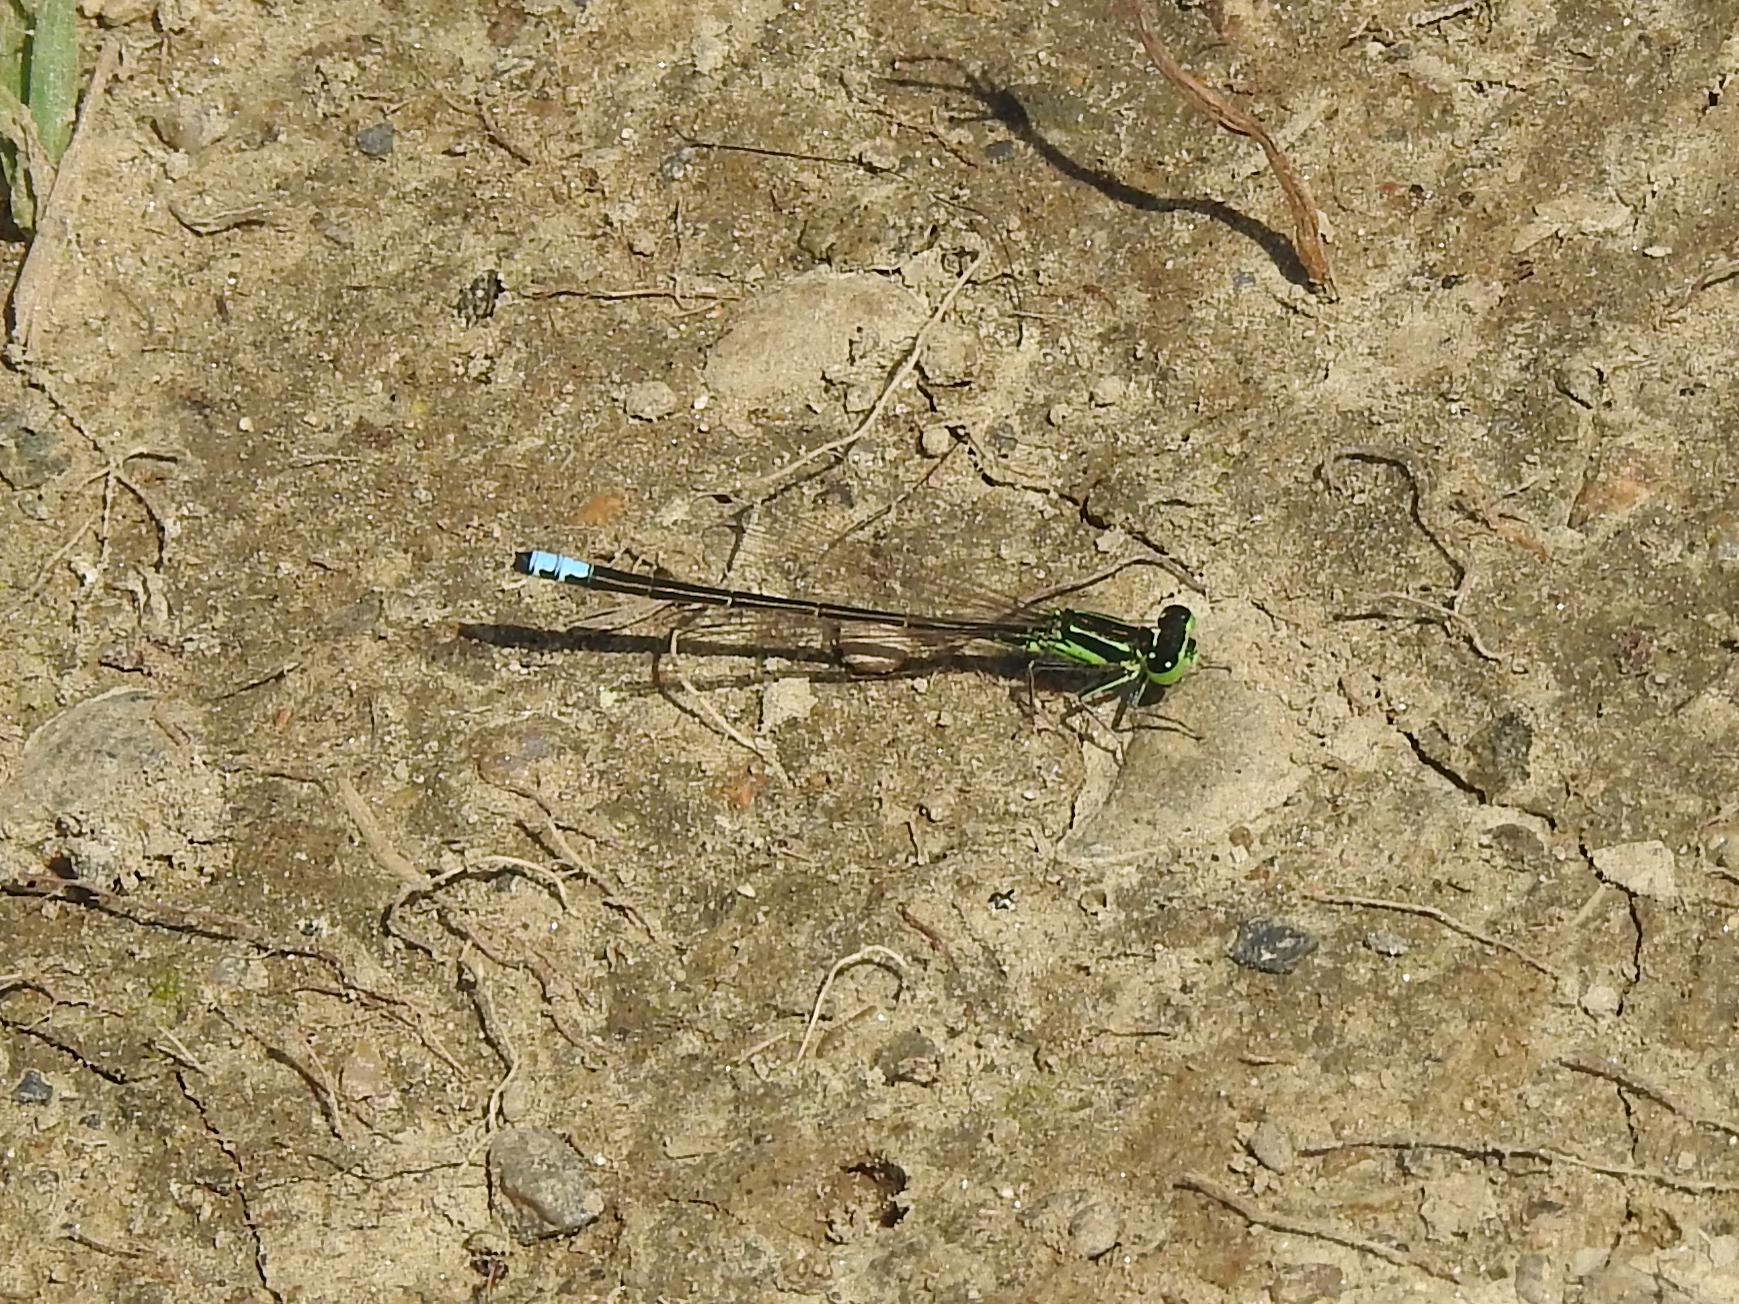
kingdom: Animalia
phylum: Arthropoda
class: Insecta
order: Odonata
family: Coenagrionidae
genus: Ischnura
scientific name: Ischnura verticalis
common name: Eastern forktail
